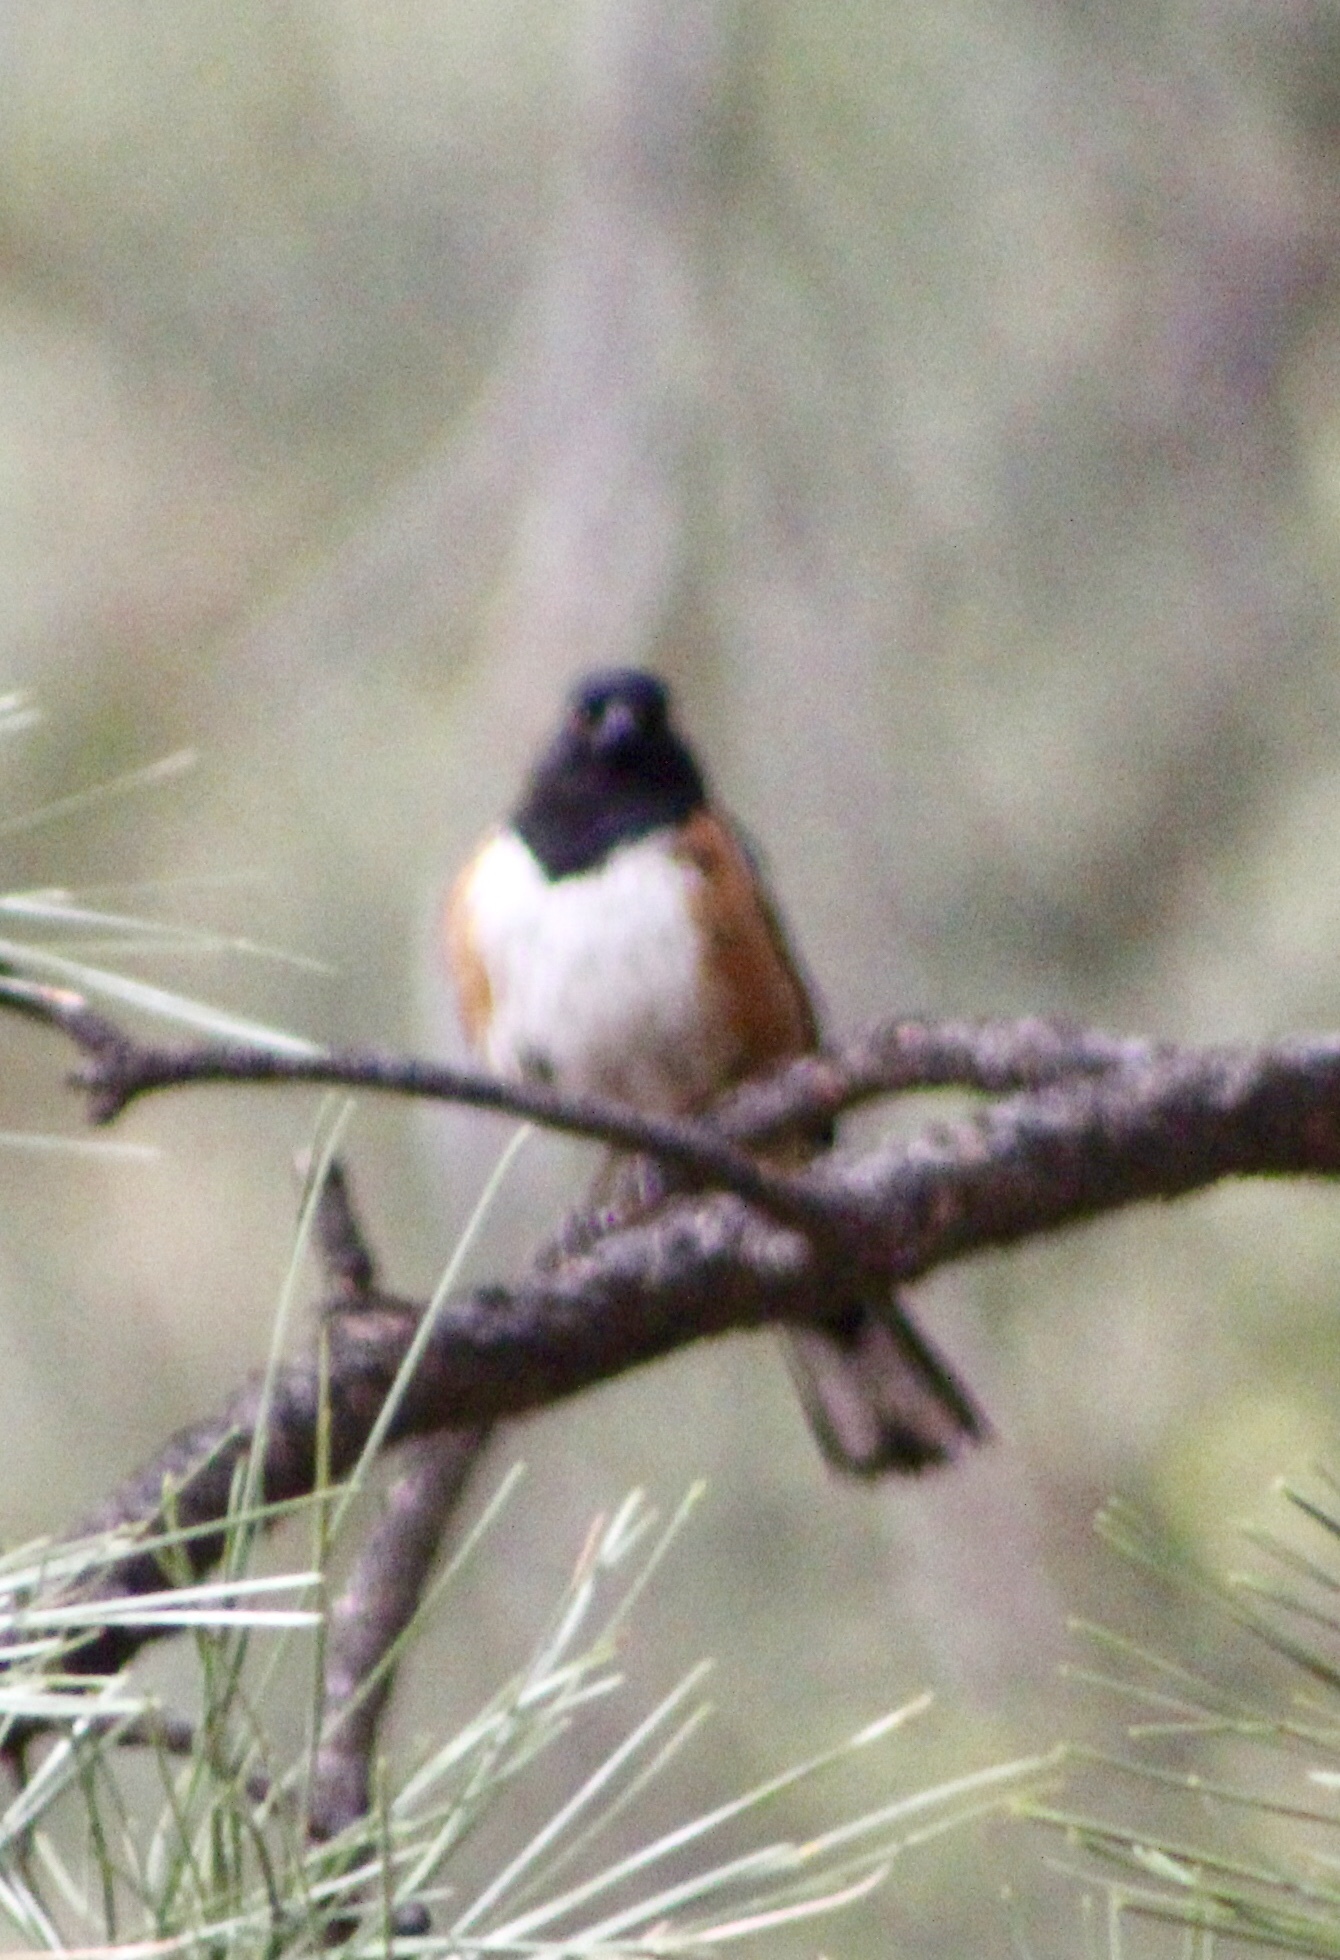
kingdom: Animalia
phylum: Chordata
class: Aves
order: Passeriformes
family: Passerellidae
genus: Pipilo
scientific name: Pipilo maculatus
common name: Spotted towhee
